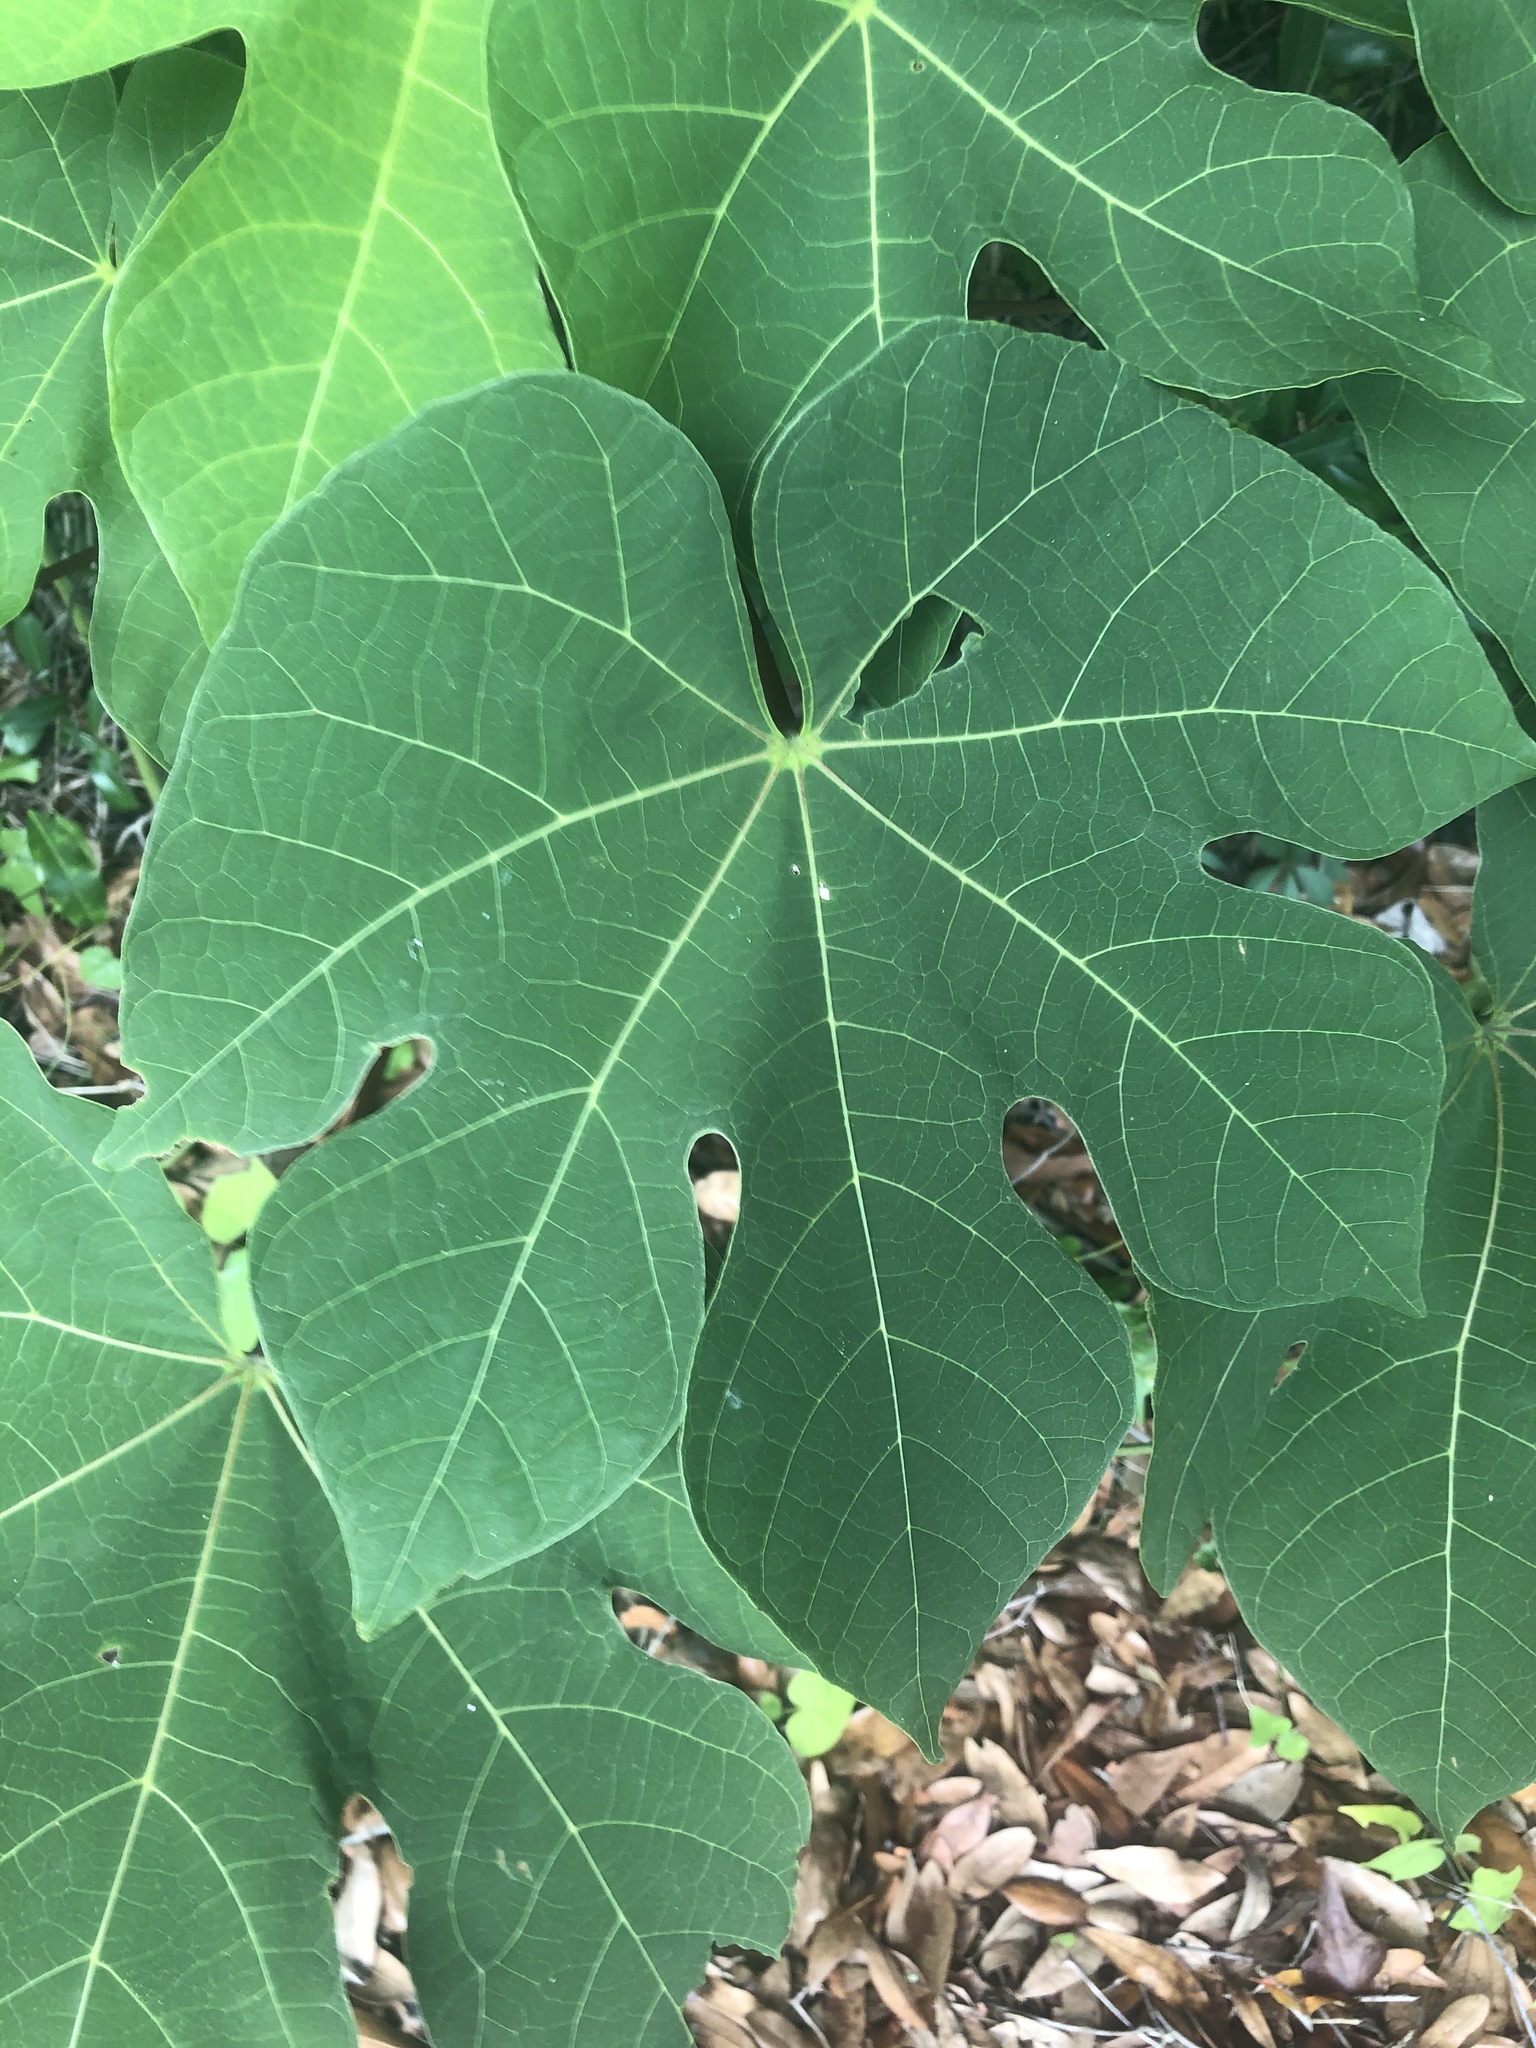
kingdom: Plantae
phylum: Tracheophyta
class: Magnoliopsida
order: Malvales
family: Malvaceae
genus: Firmiana
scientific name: Firmiana simplex
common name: Chinese parasoltree
